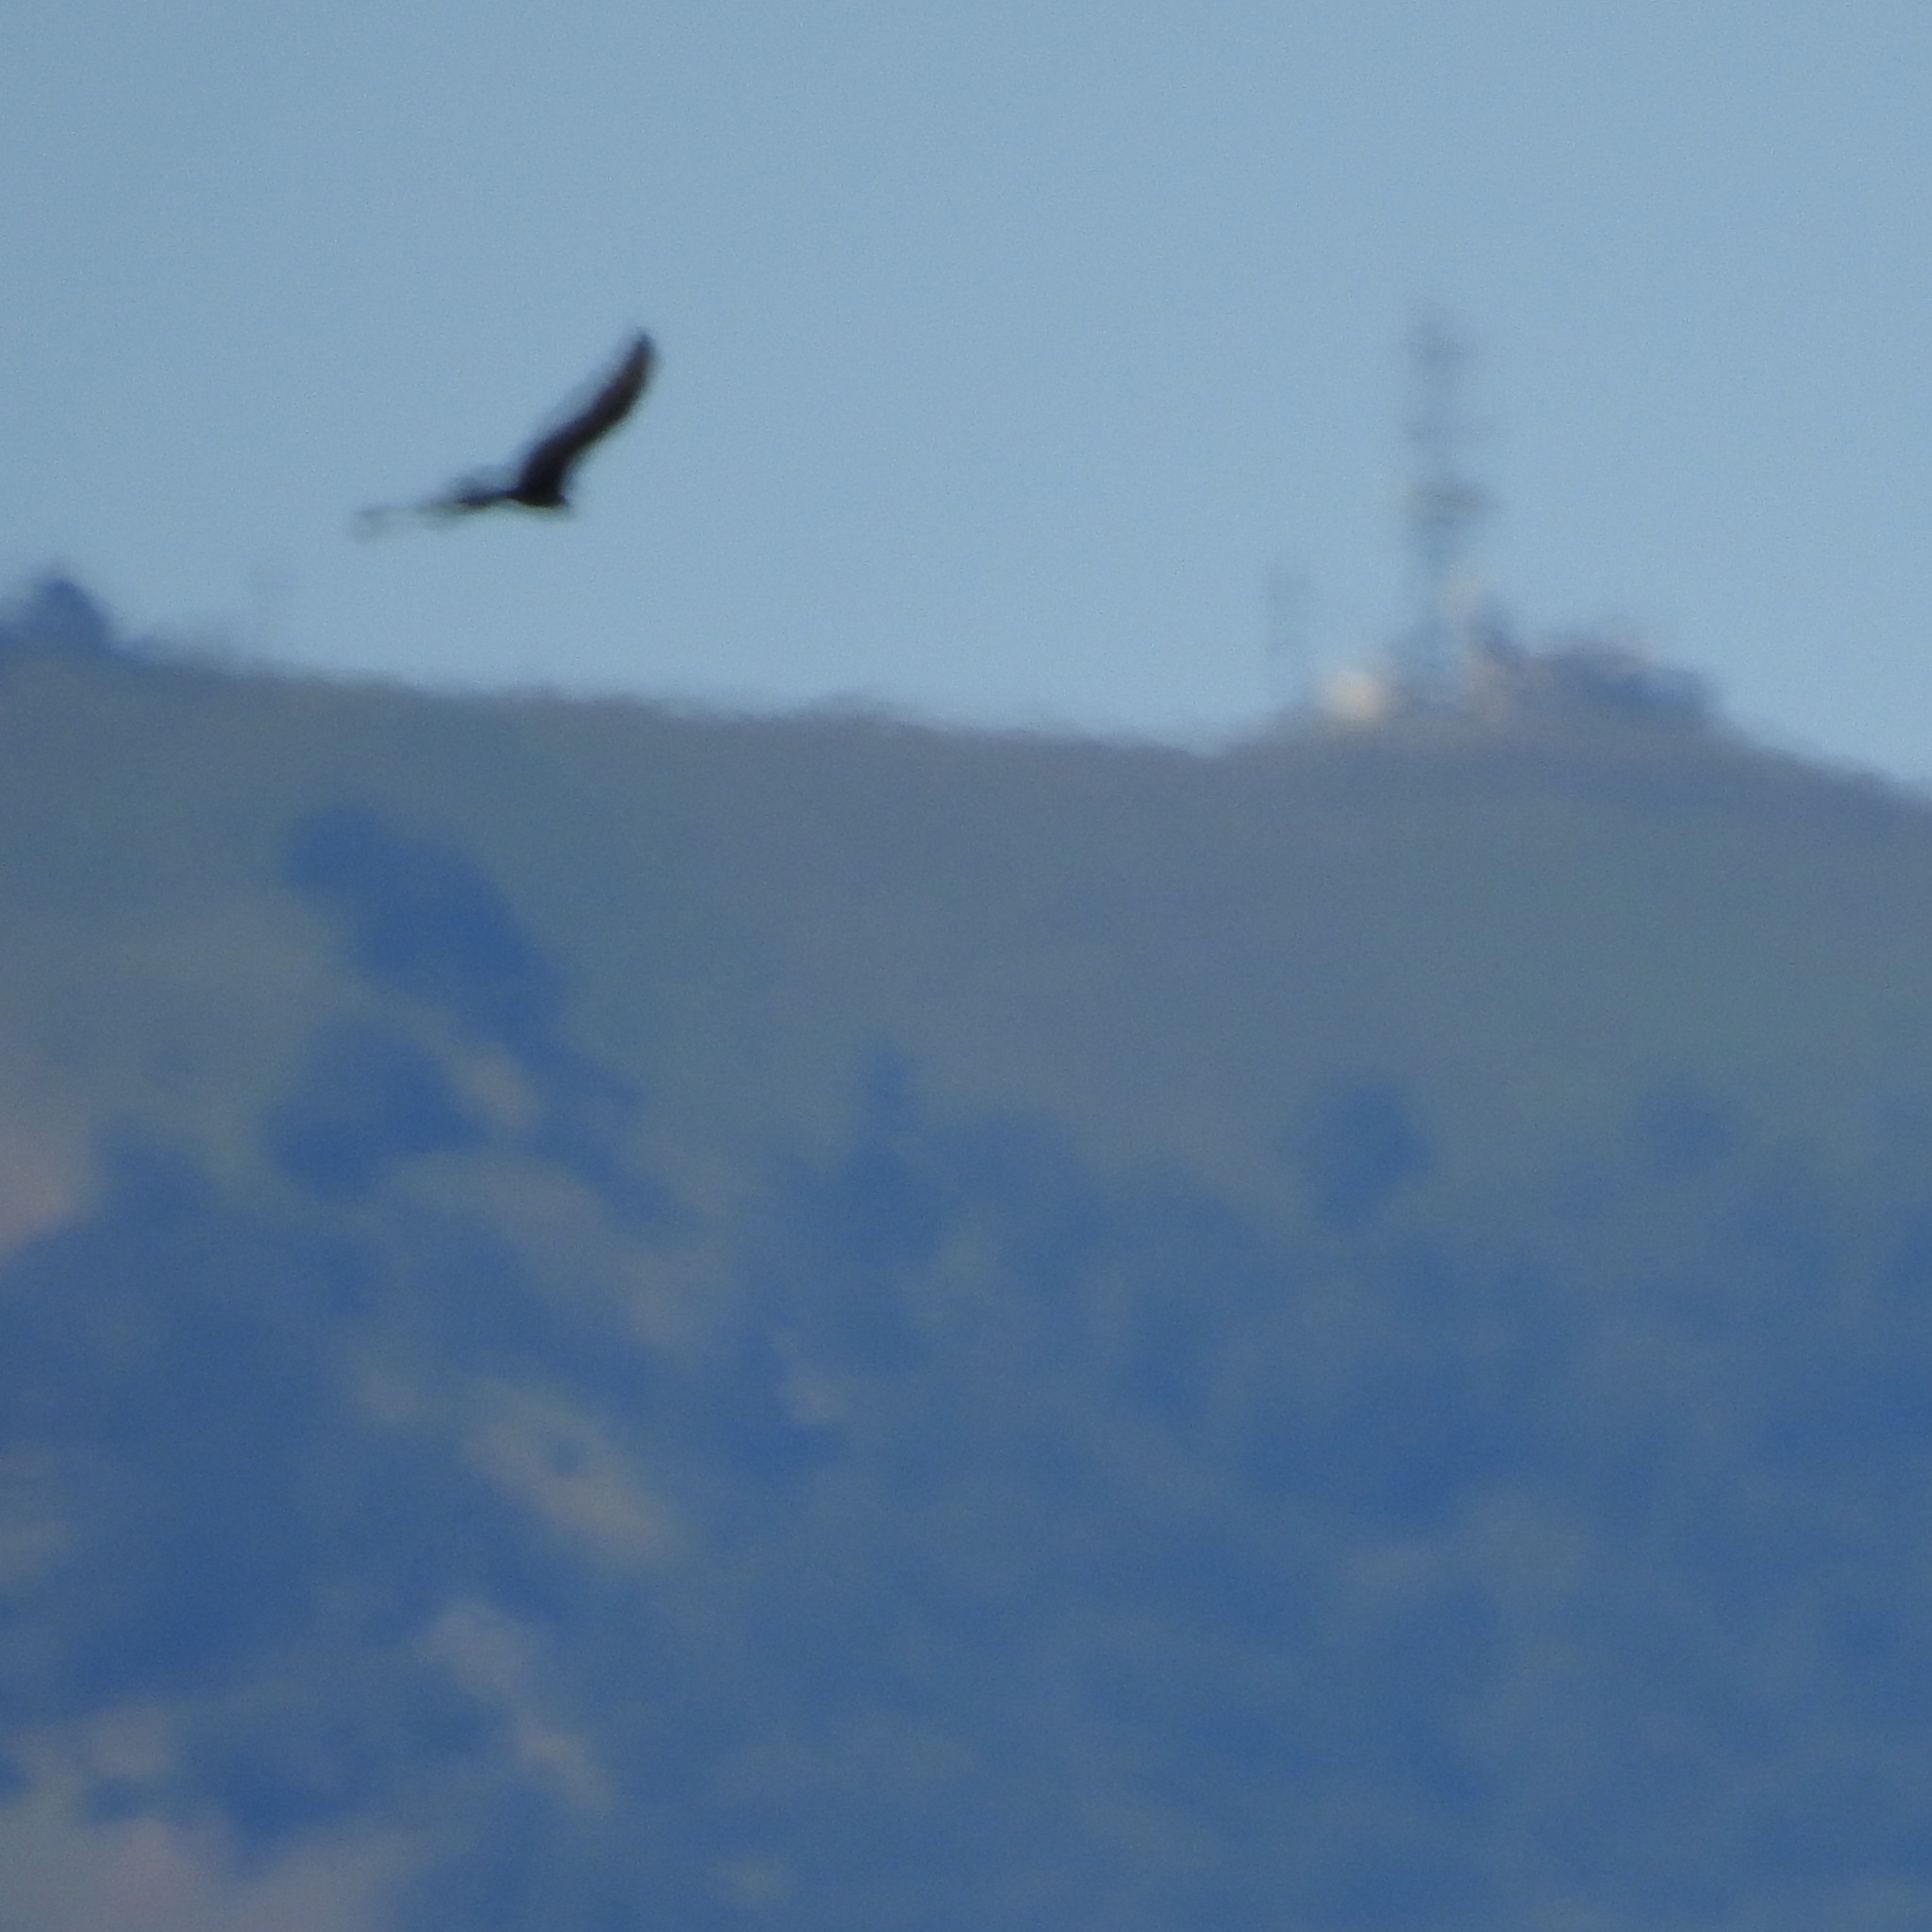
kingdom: Animalia
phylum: Chordata
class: Aves
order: Accipitriformes
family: Cathartidae
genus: Cathartes
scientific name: Cathartes aura
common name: Turkey vulture
